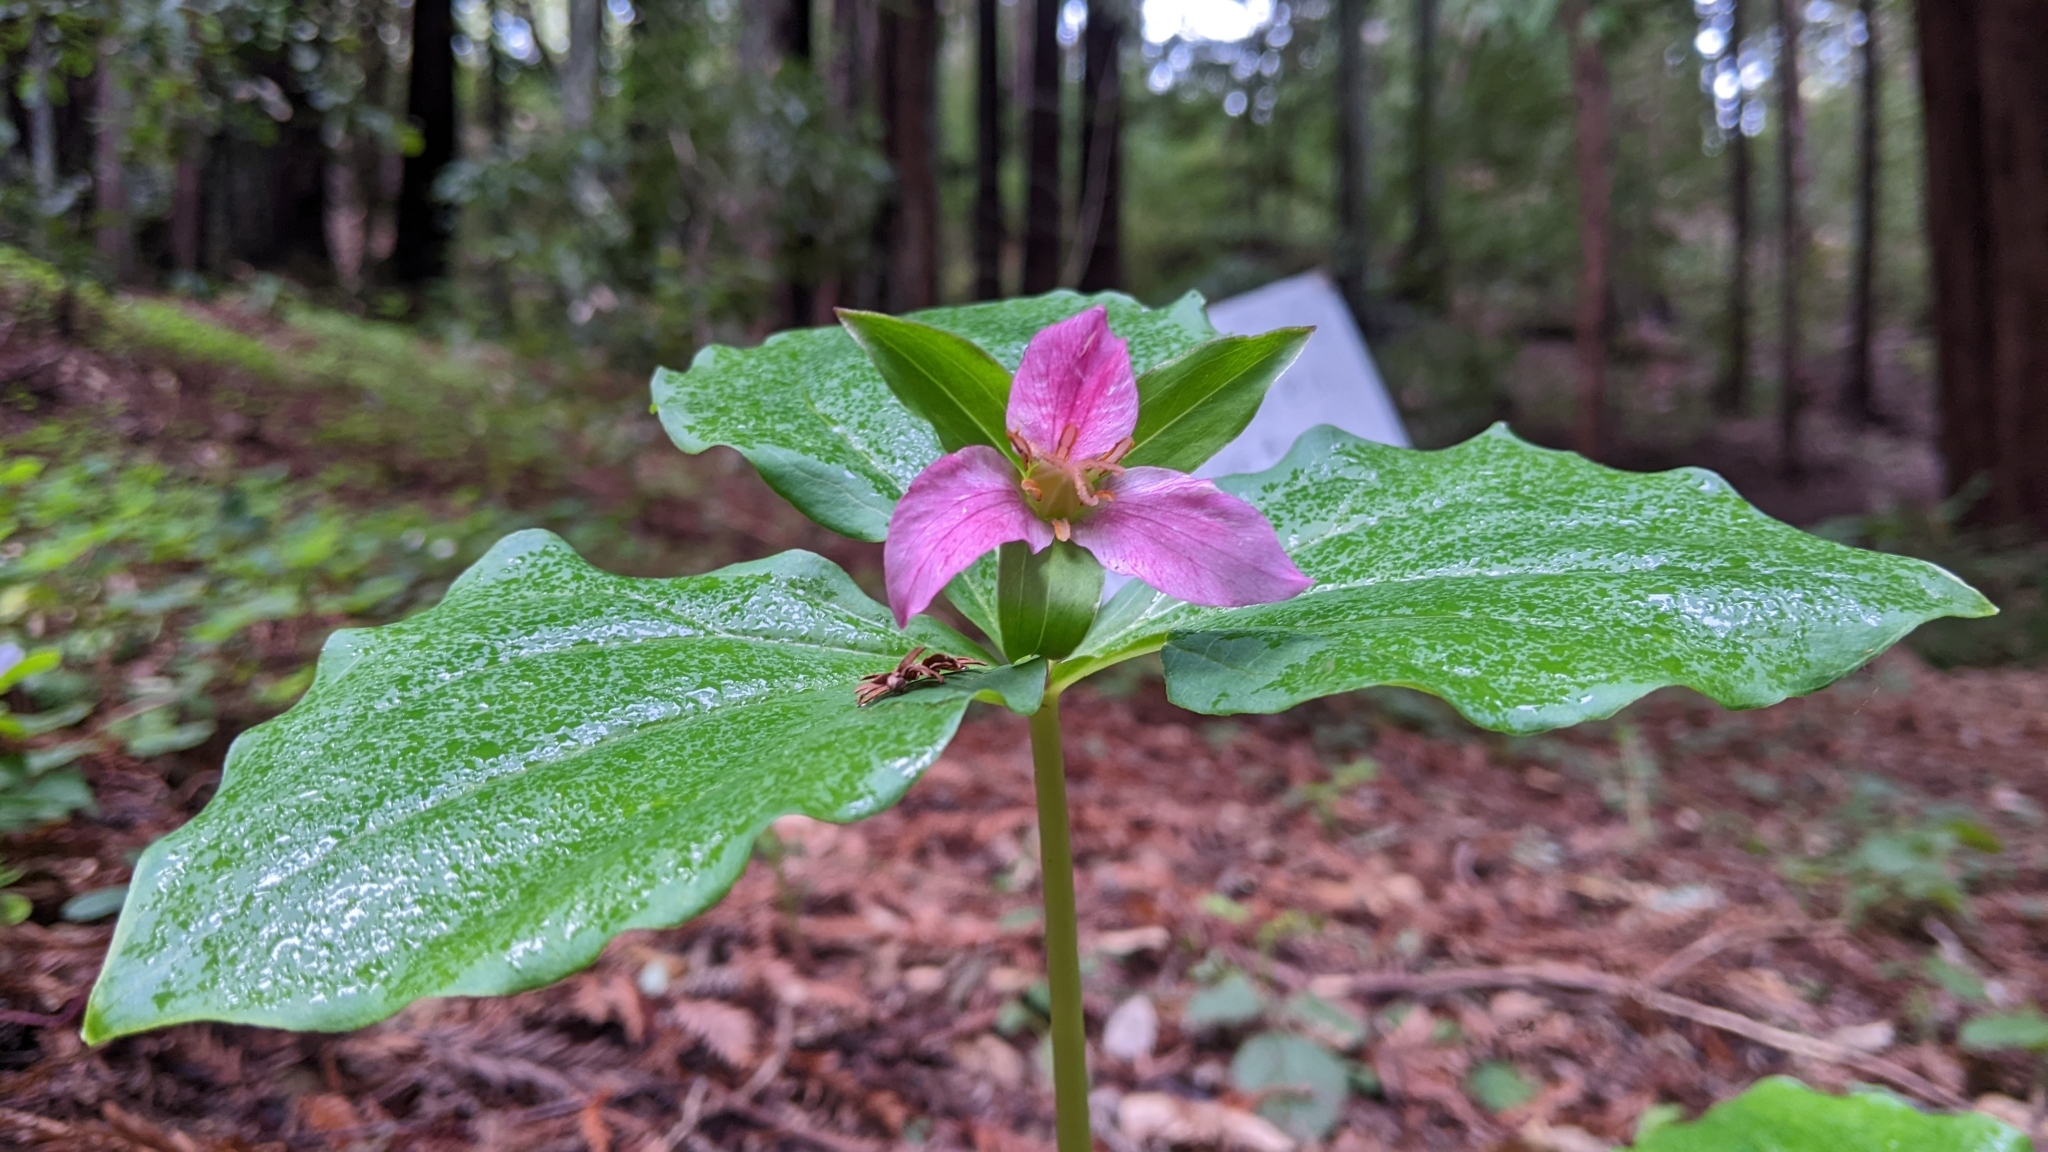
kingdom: Plantae
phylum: Tracheophyta
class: Liliopsida
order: Liliales
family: Melanthiaceae
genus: Trillium
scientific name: Trillium ovatum
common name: Pacific trillium
